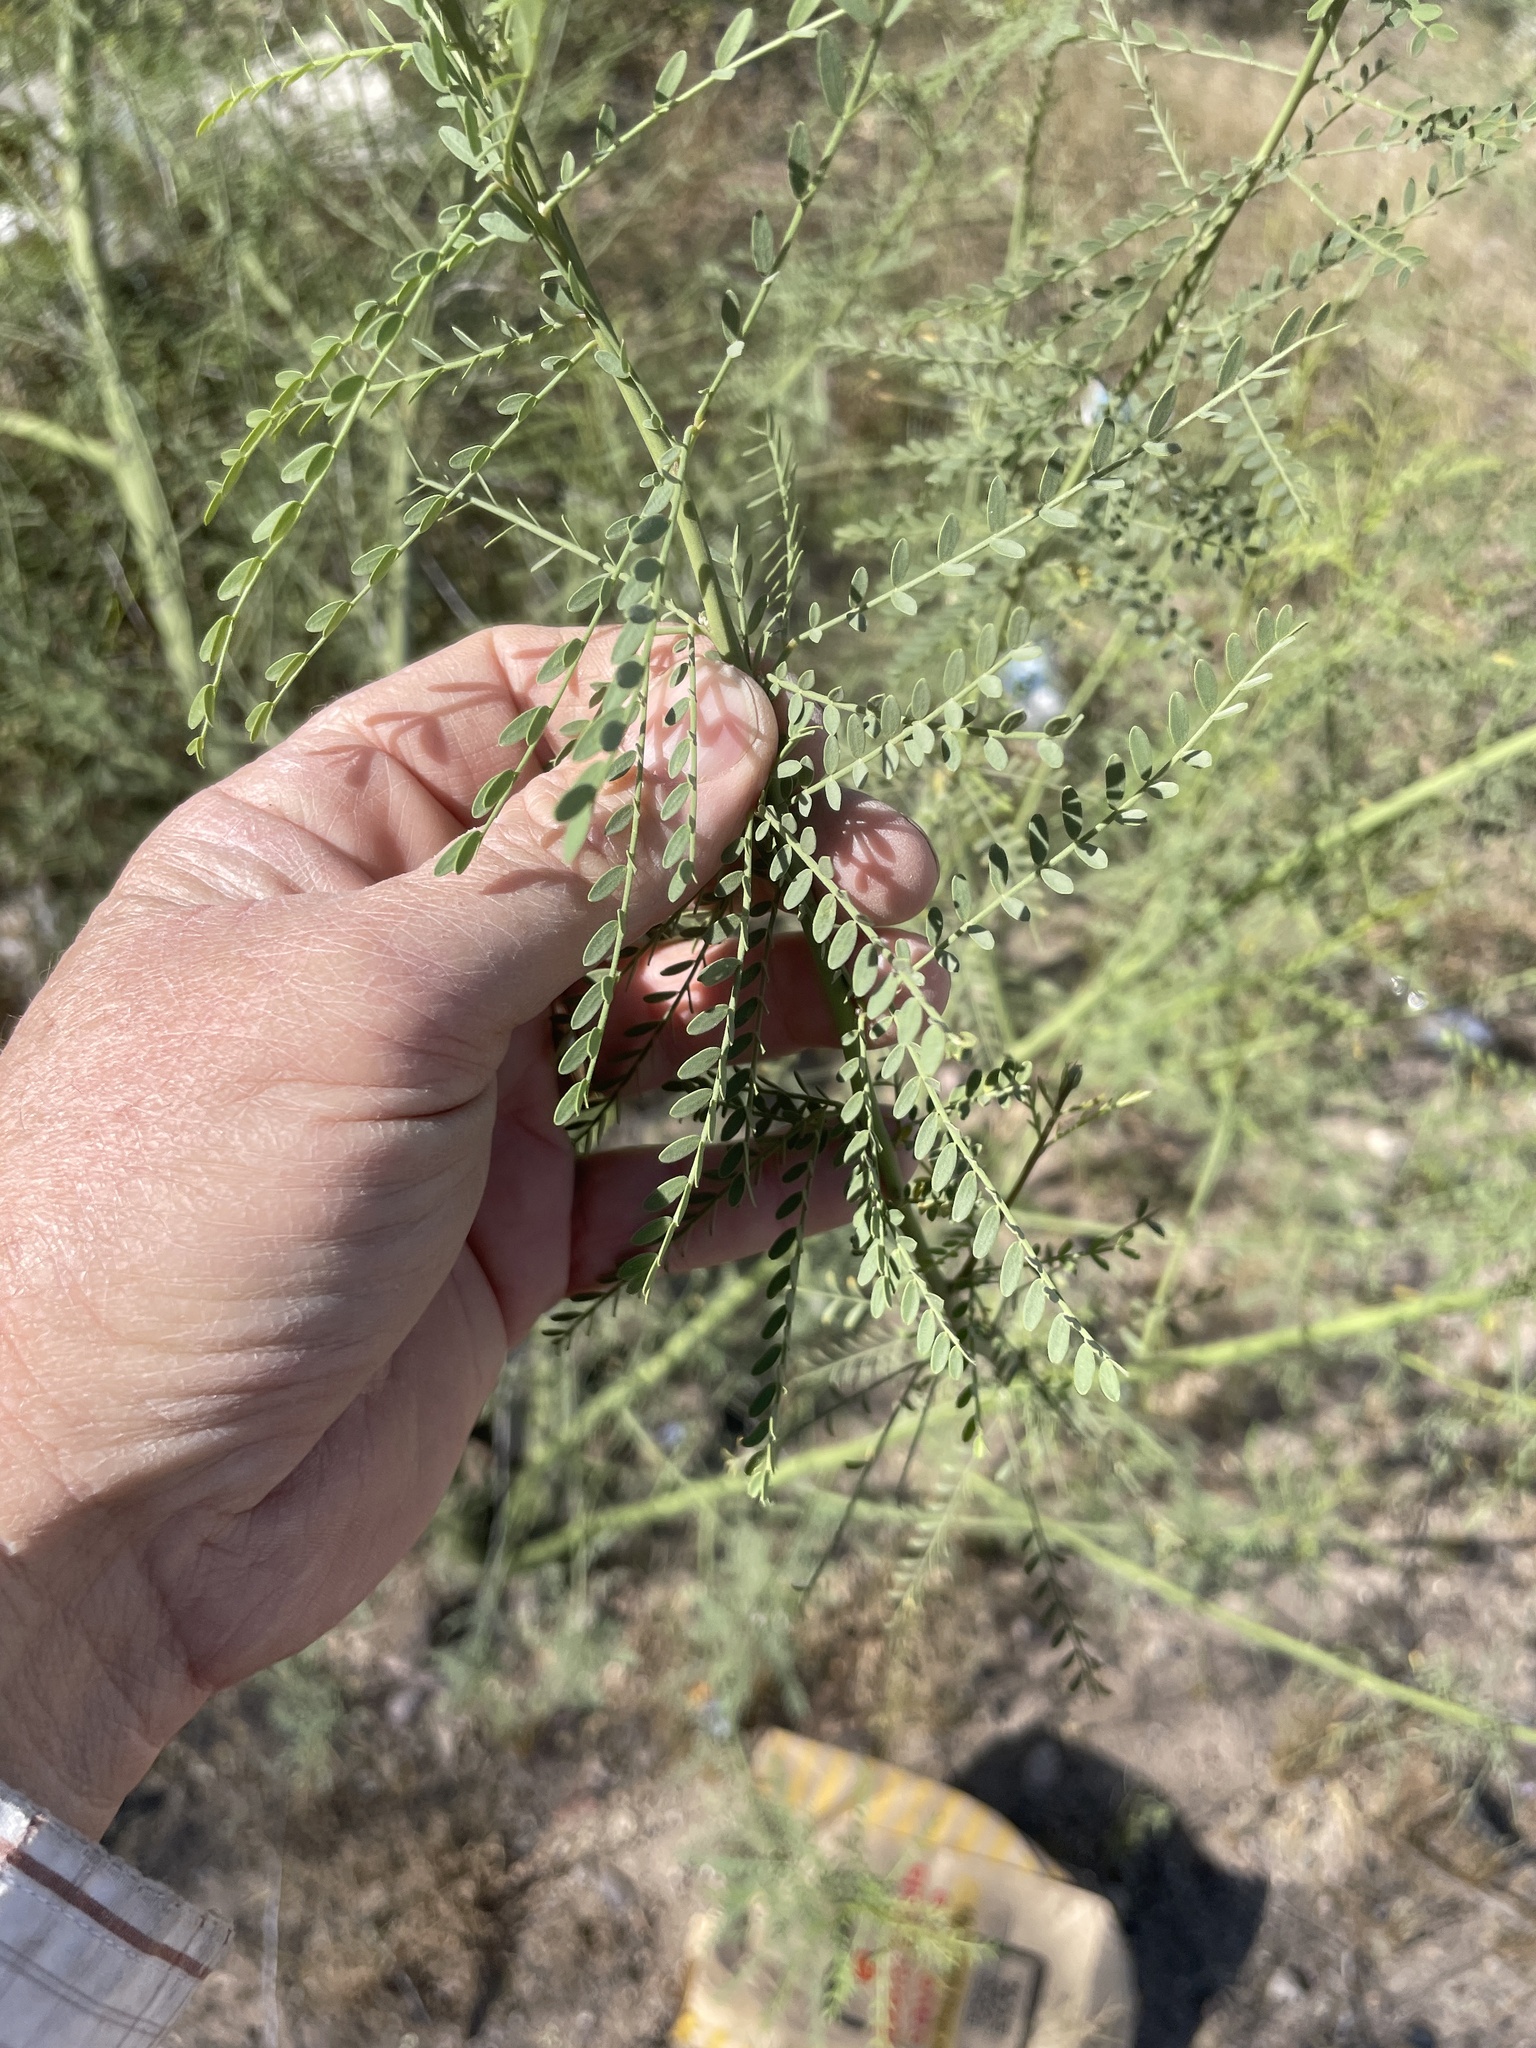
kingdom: Plantae
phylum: Tracheophyta
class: Magnoliopsida
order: Fabales
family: Fabaceae
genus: Parkinsonia
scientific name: Parkinsonia
